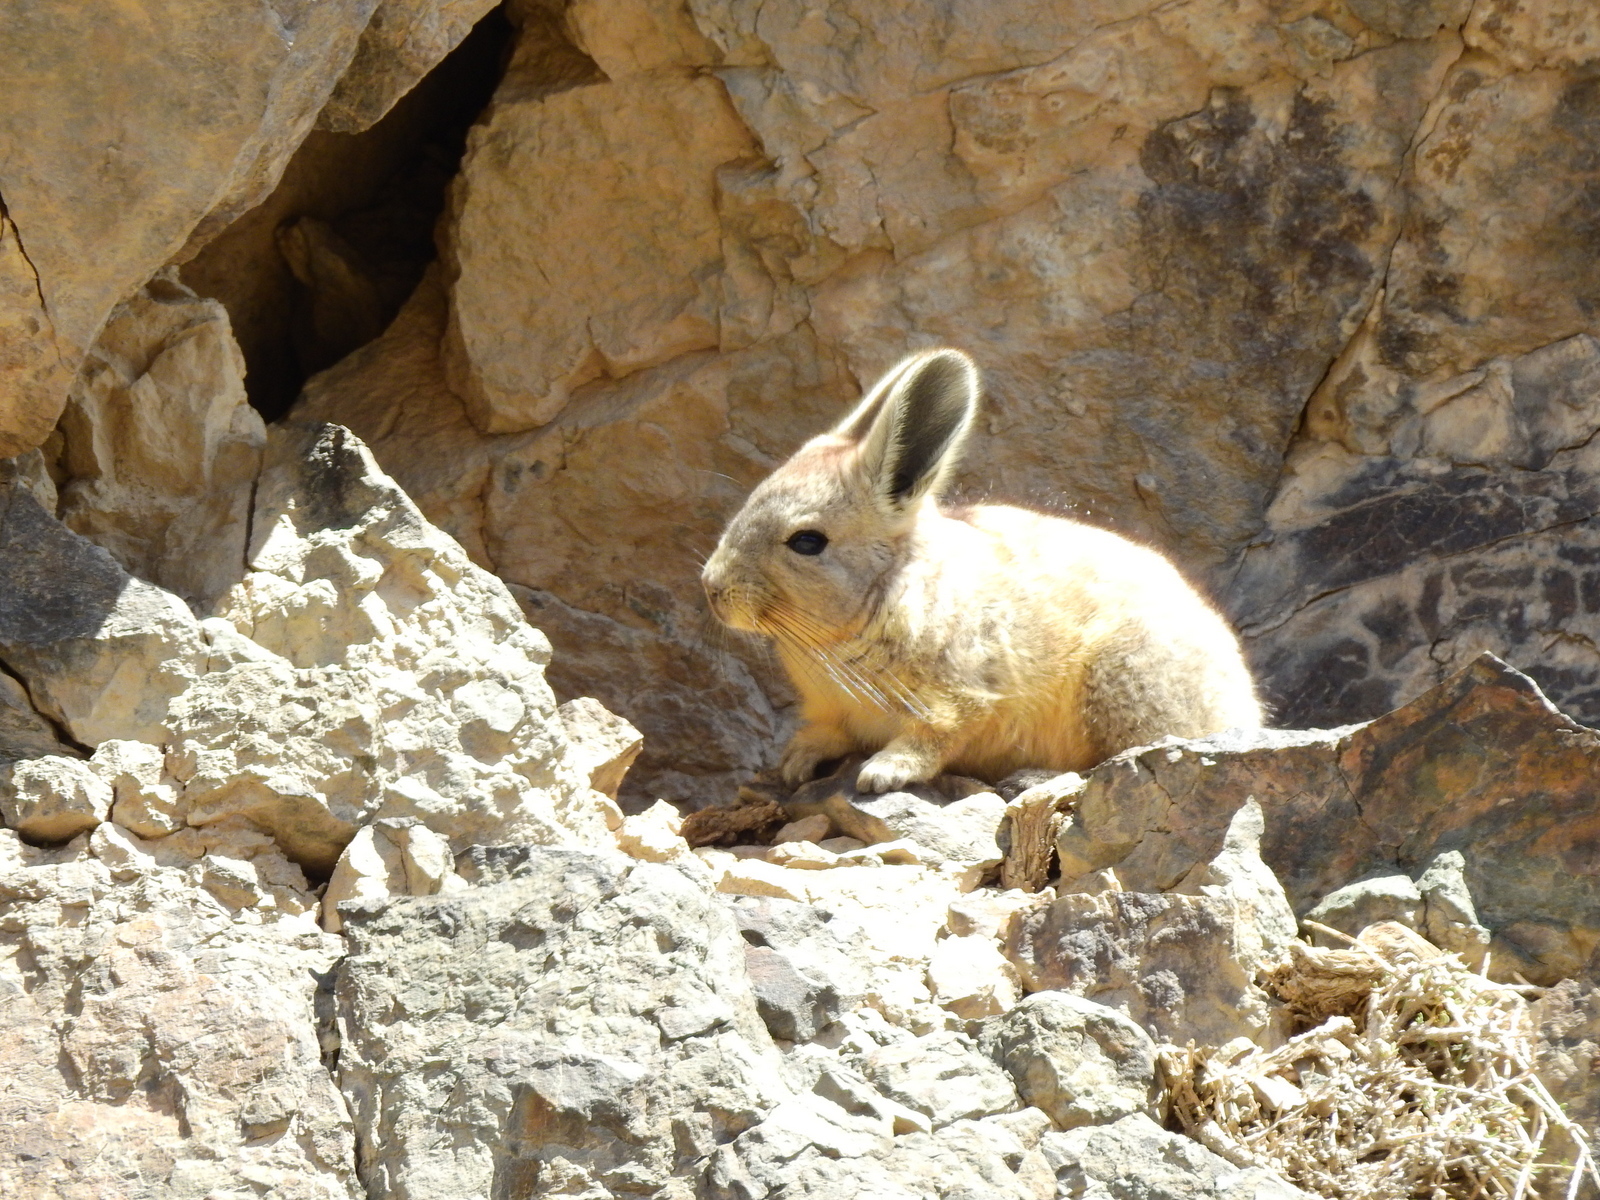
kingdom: Animalia
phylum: Chordata
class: Mammalia
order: Rodentia
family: Chinchillidae
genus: Lagidium
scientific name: Lagidium viscacia
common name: Southern viscacha
